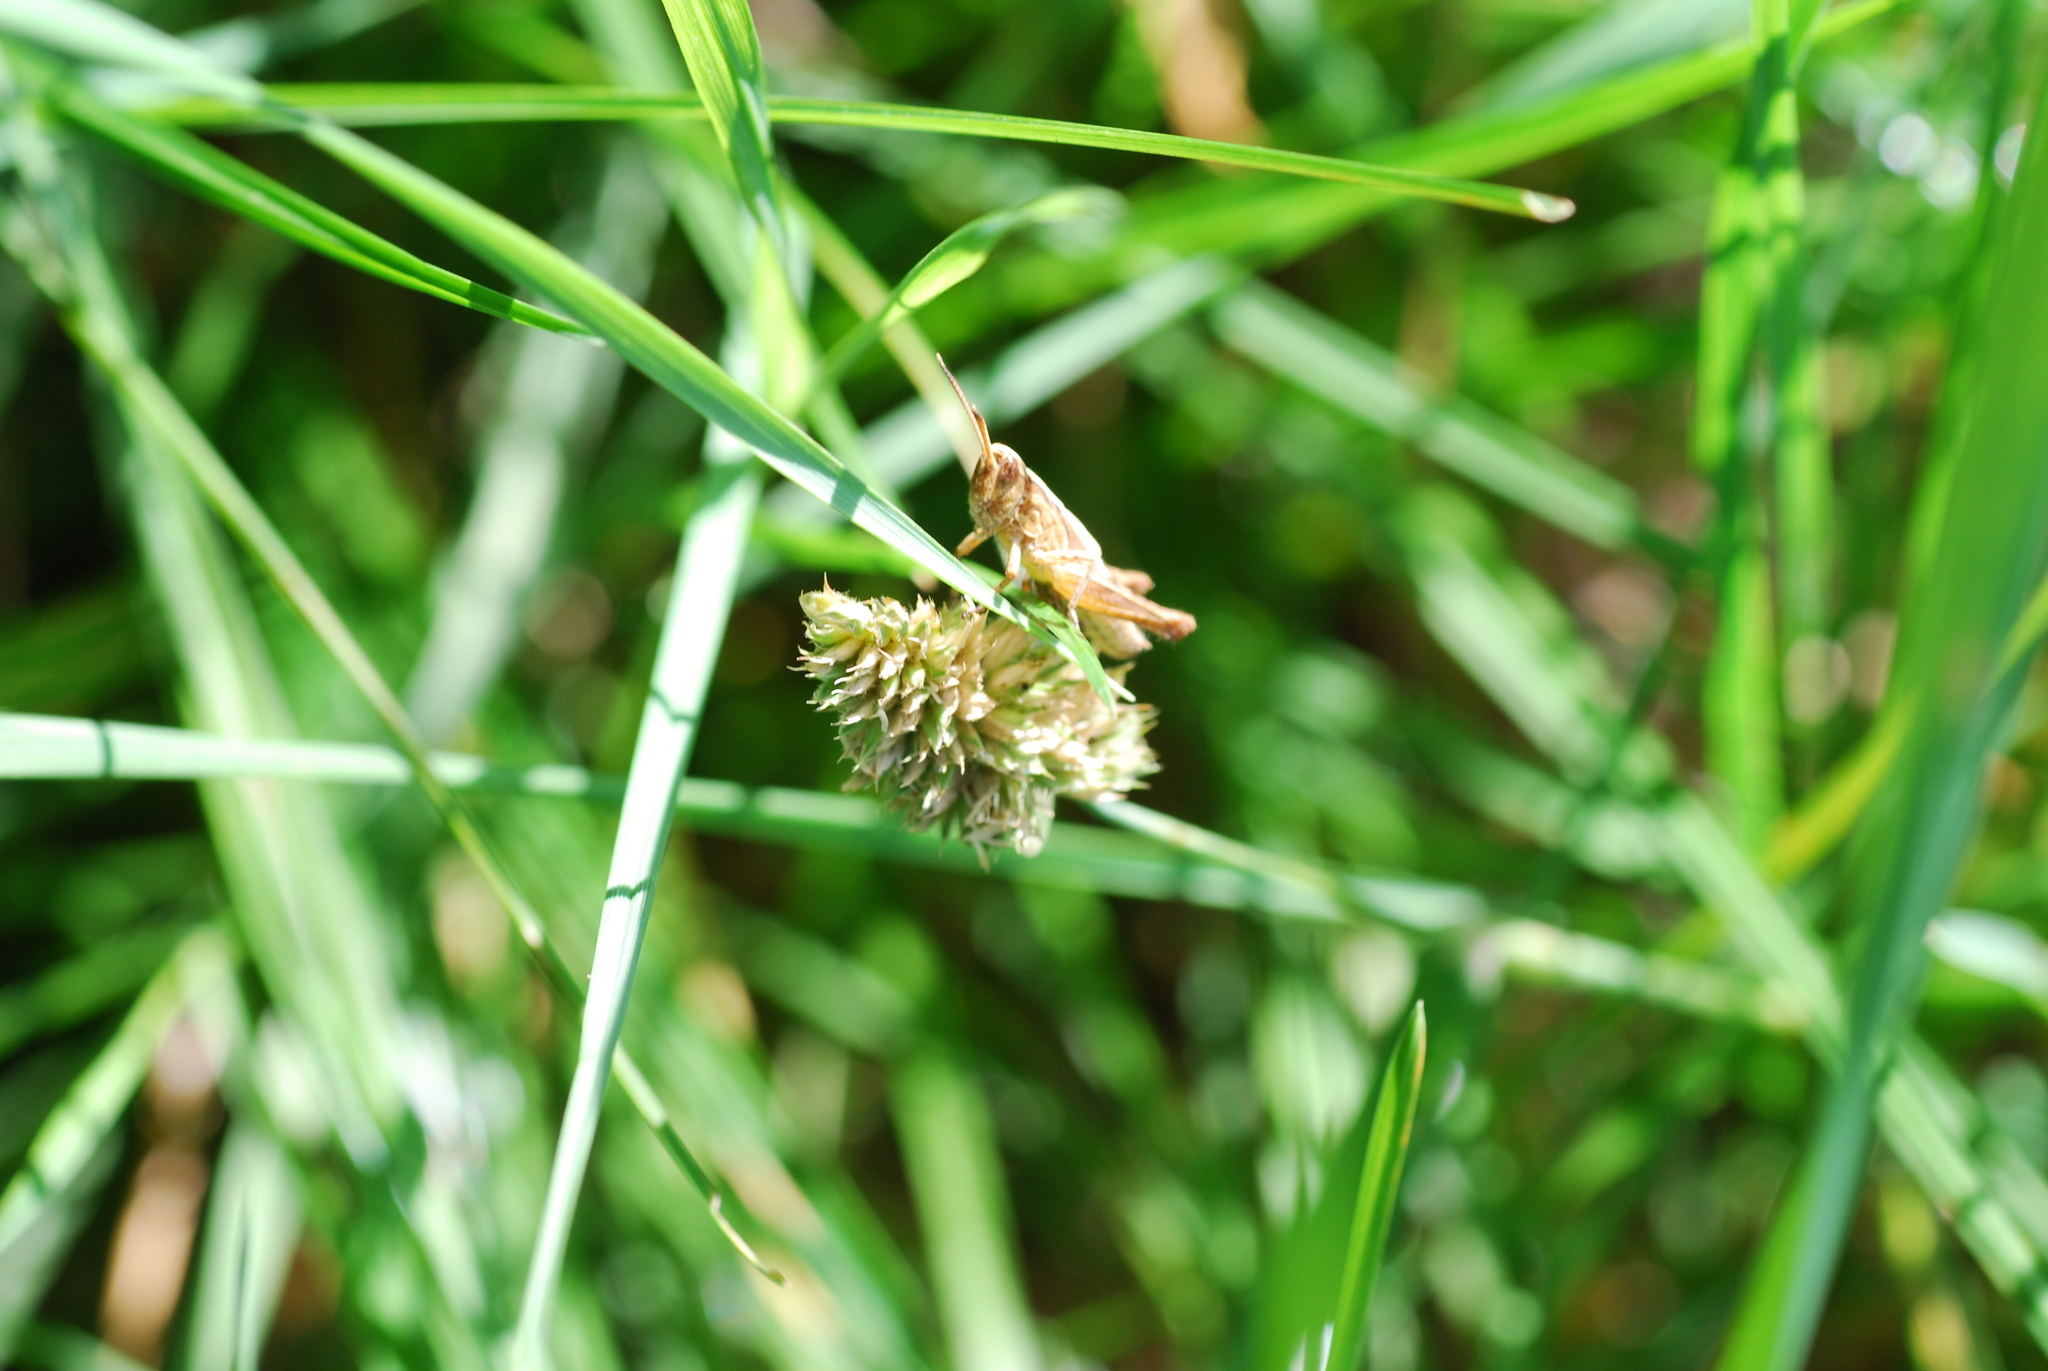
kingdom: Animalia
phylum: Arthropoda
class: Insecta
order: Orthoptera
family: Acrididae
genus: Gomphocerippus
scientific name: Gomphocerippus rufus
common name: Rufous grasshopper
